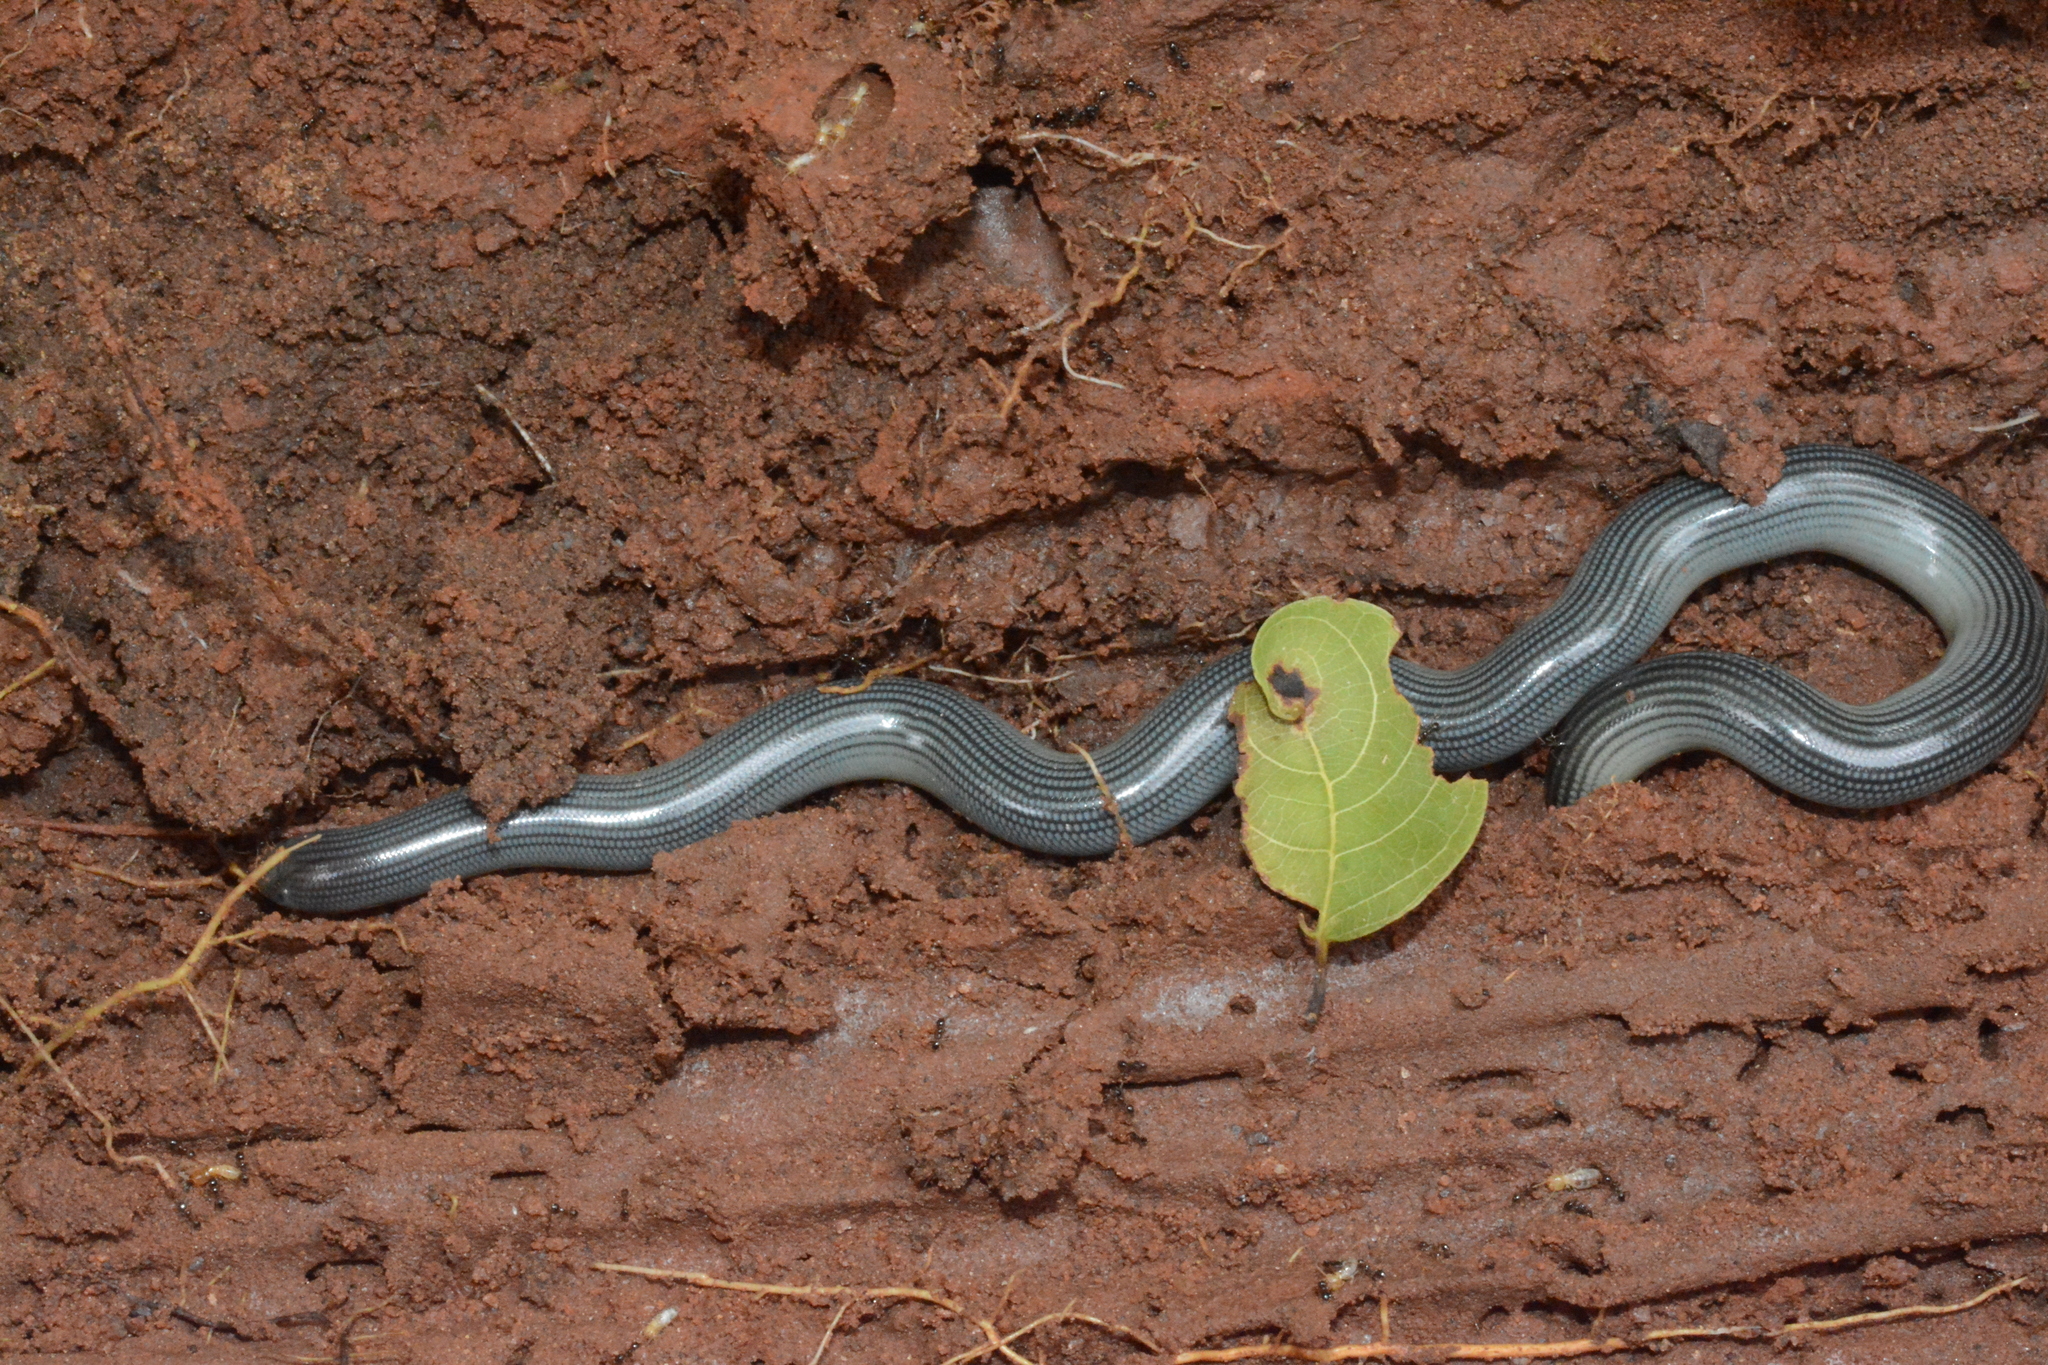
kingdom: Animalia
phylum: Chordata
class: Squamata
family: Typhlopidae
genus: Afrotyphlops
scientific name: Afrotyphlops lineolatus
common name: Common lined worm snake
